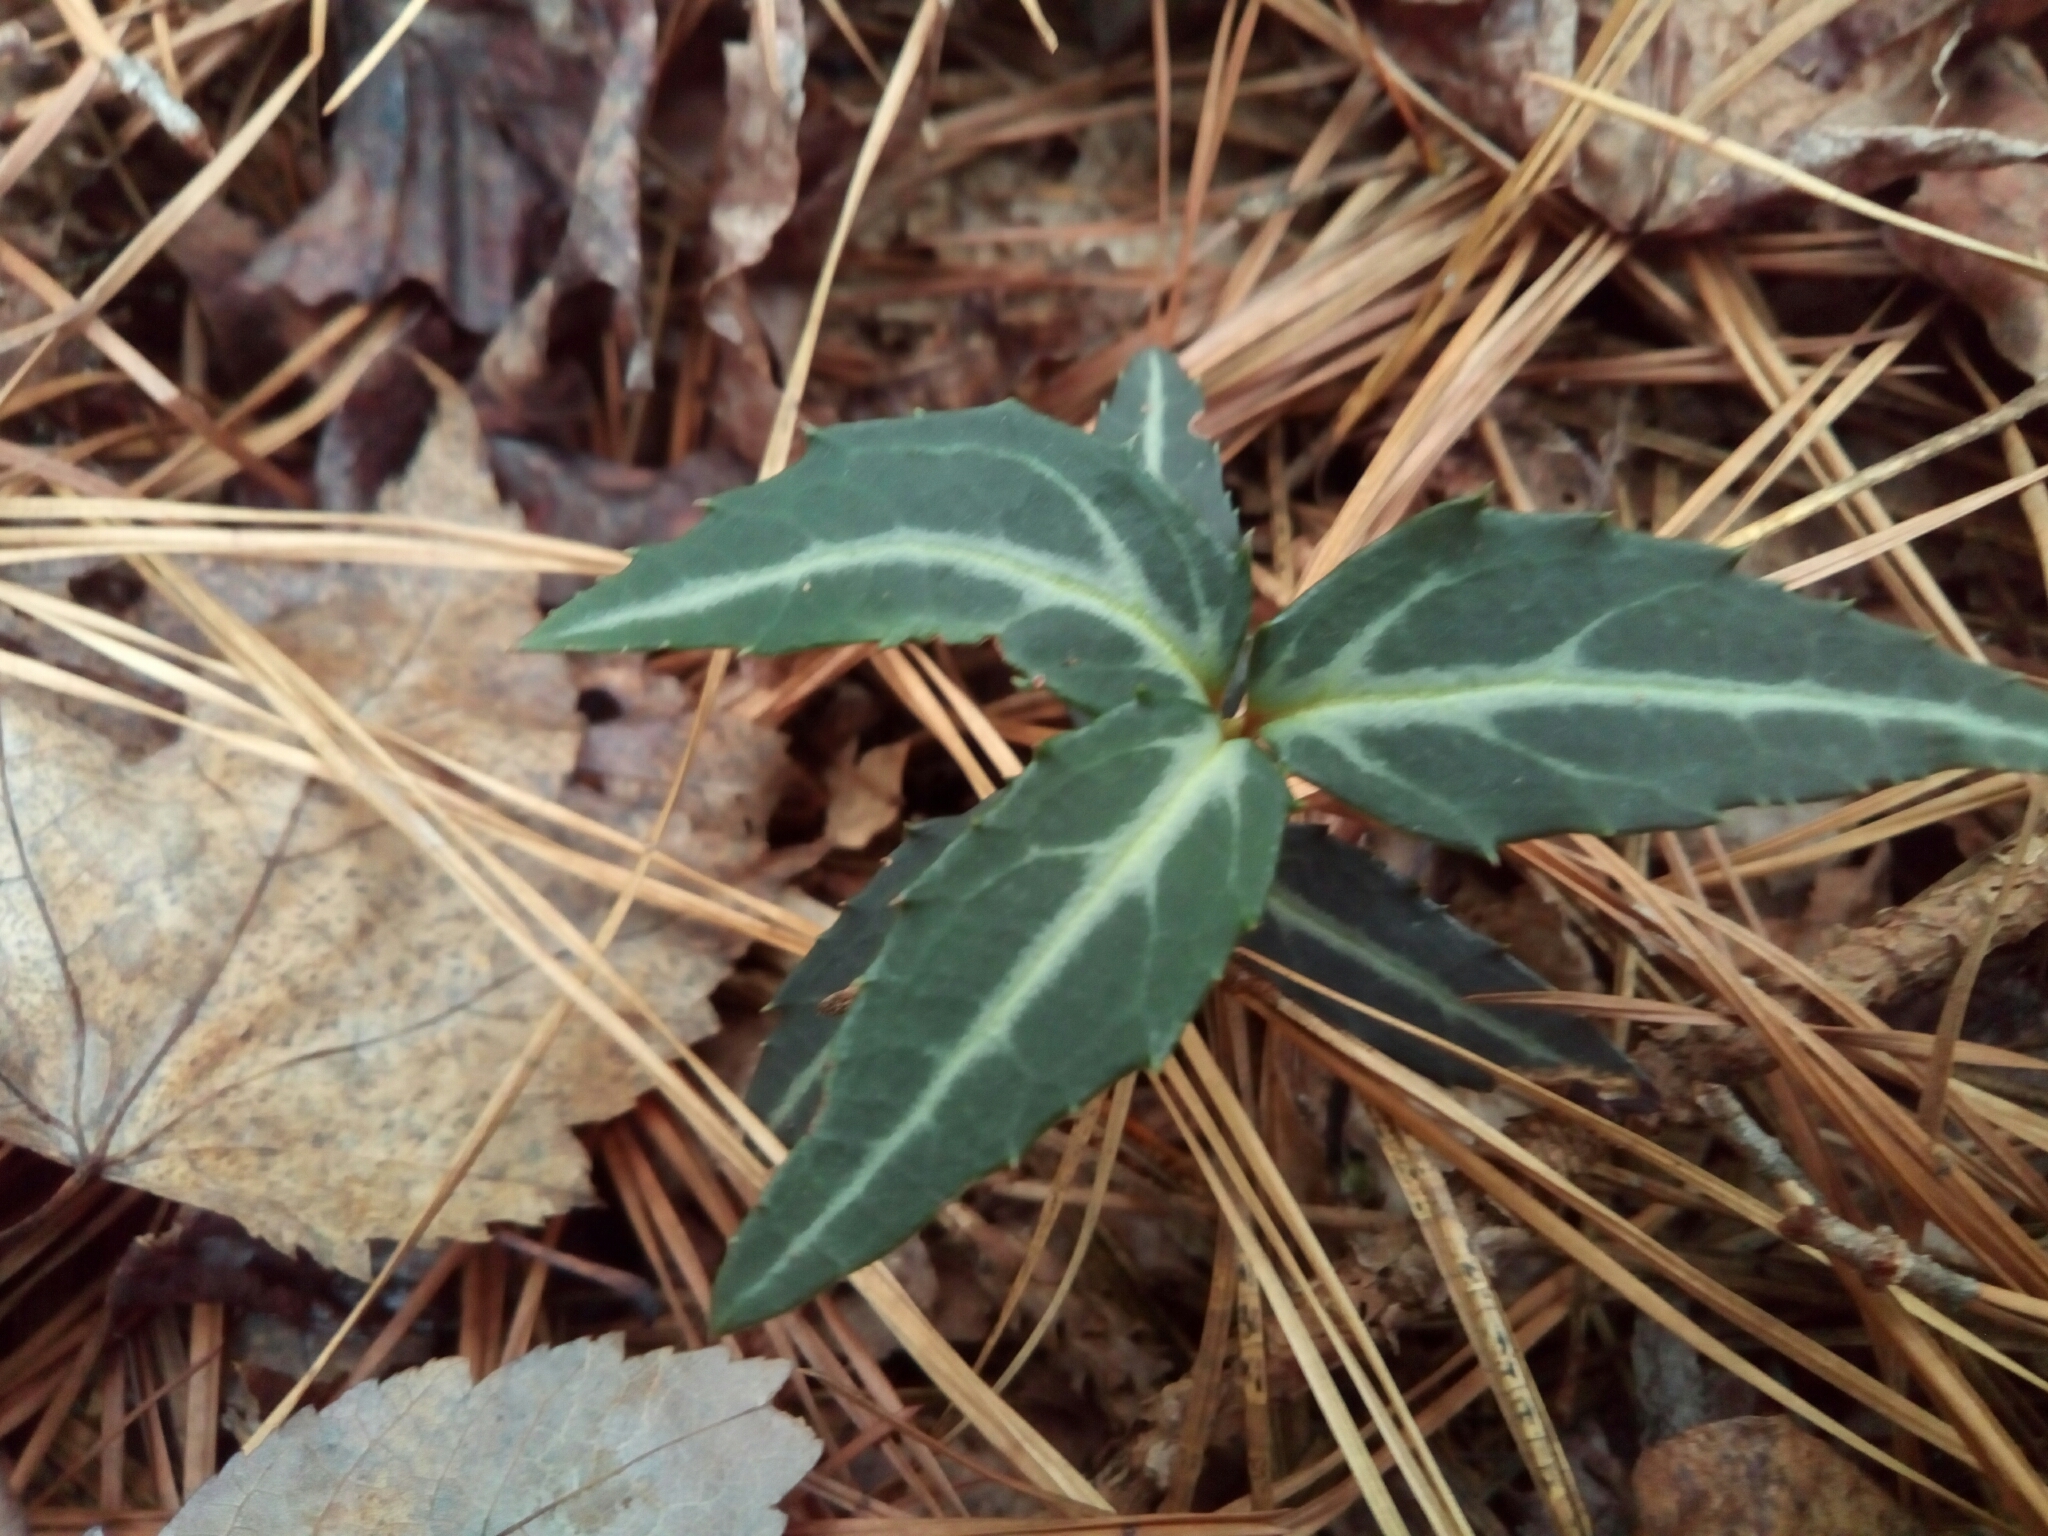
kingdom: Plantae
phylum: Tracheophyta
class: Magnoliopsida
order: Ericales
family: Ericaceae
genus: Chimaphila
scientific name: Chimaphila maculata
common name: Spotted pipsissewa
